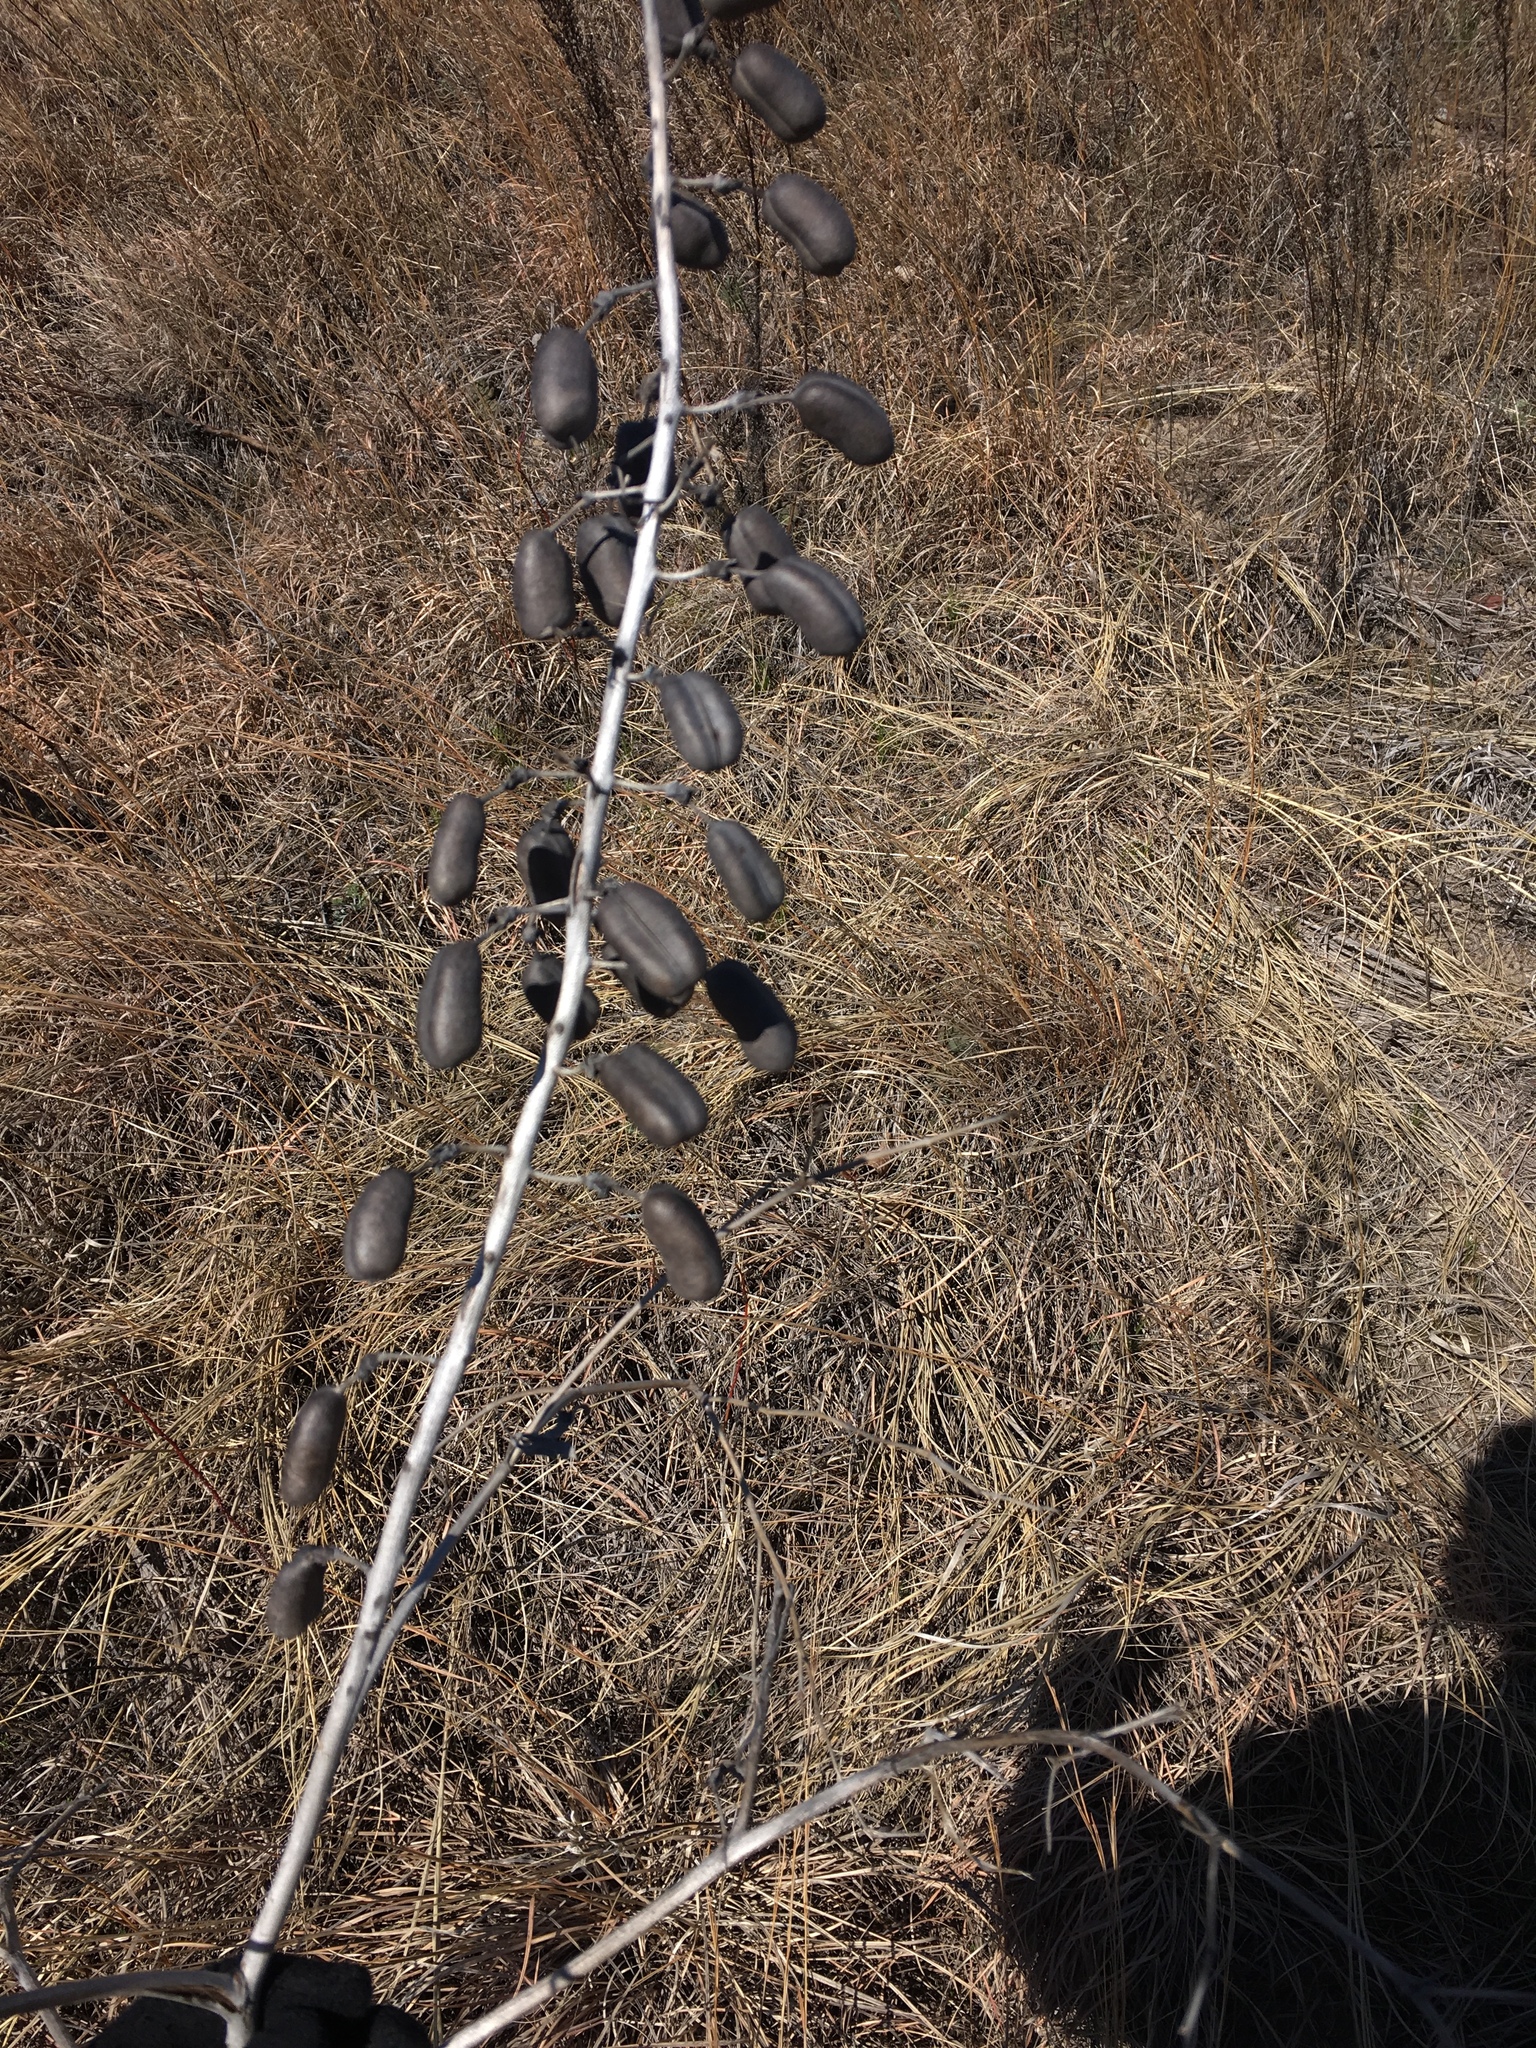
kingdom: Plantae
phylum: Tracheophyta
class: Magnoliopsida
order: Fabales
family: Fabaceae
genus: Baptisia
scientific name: Baptisia alba
